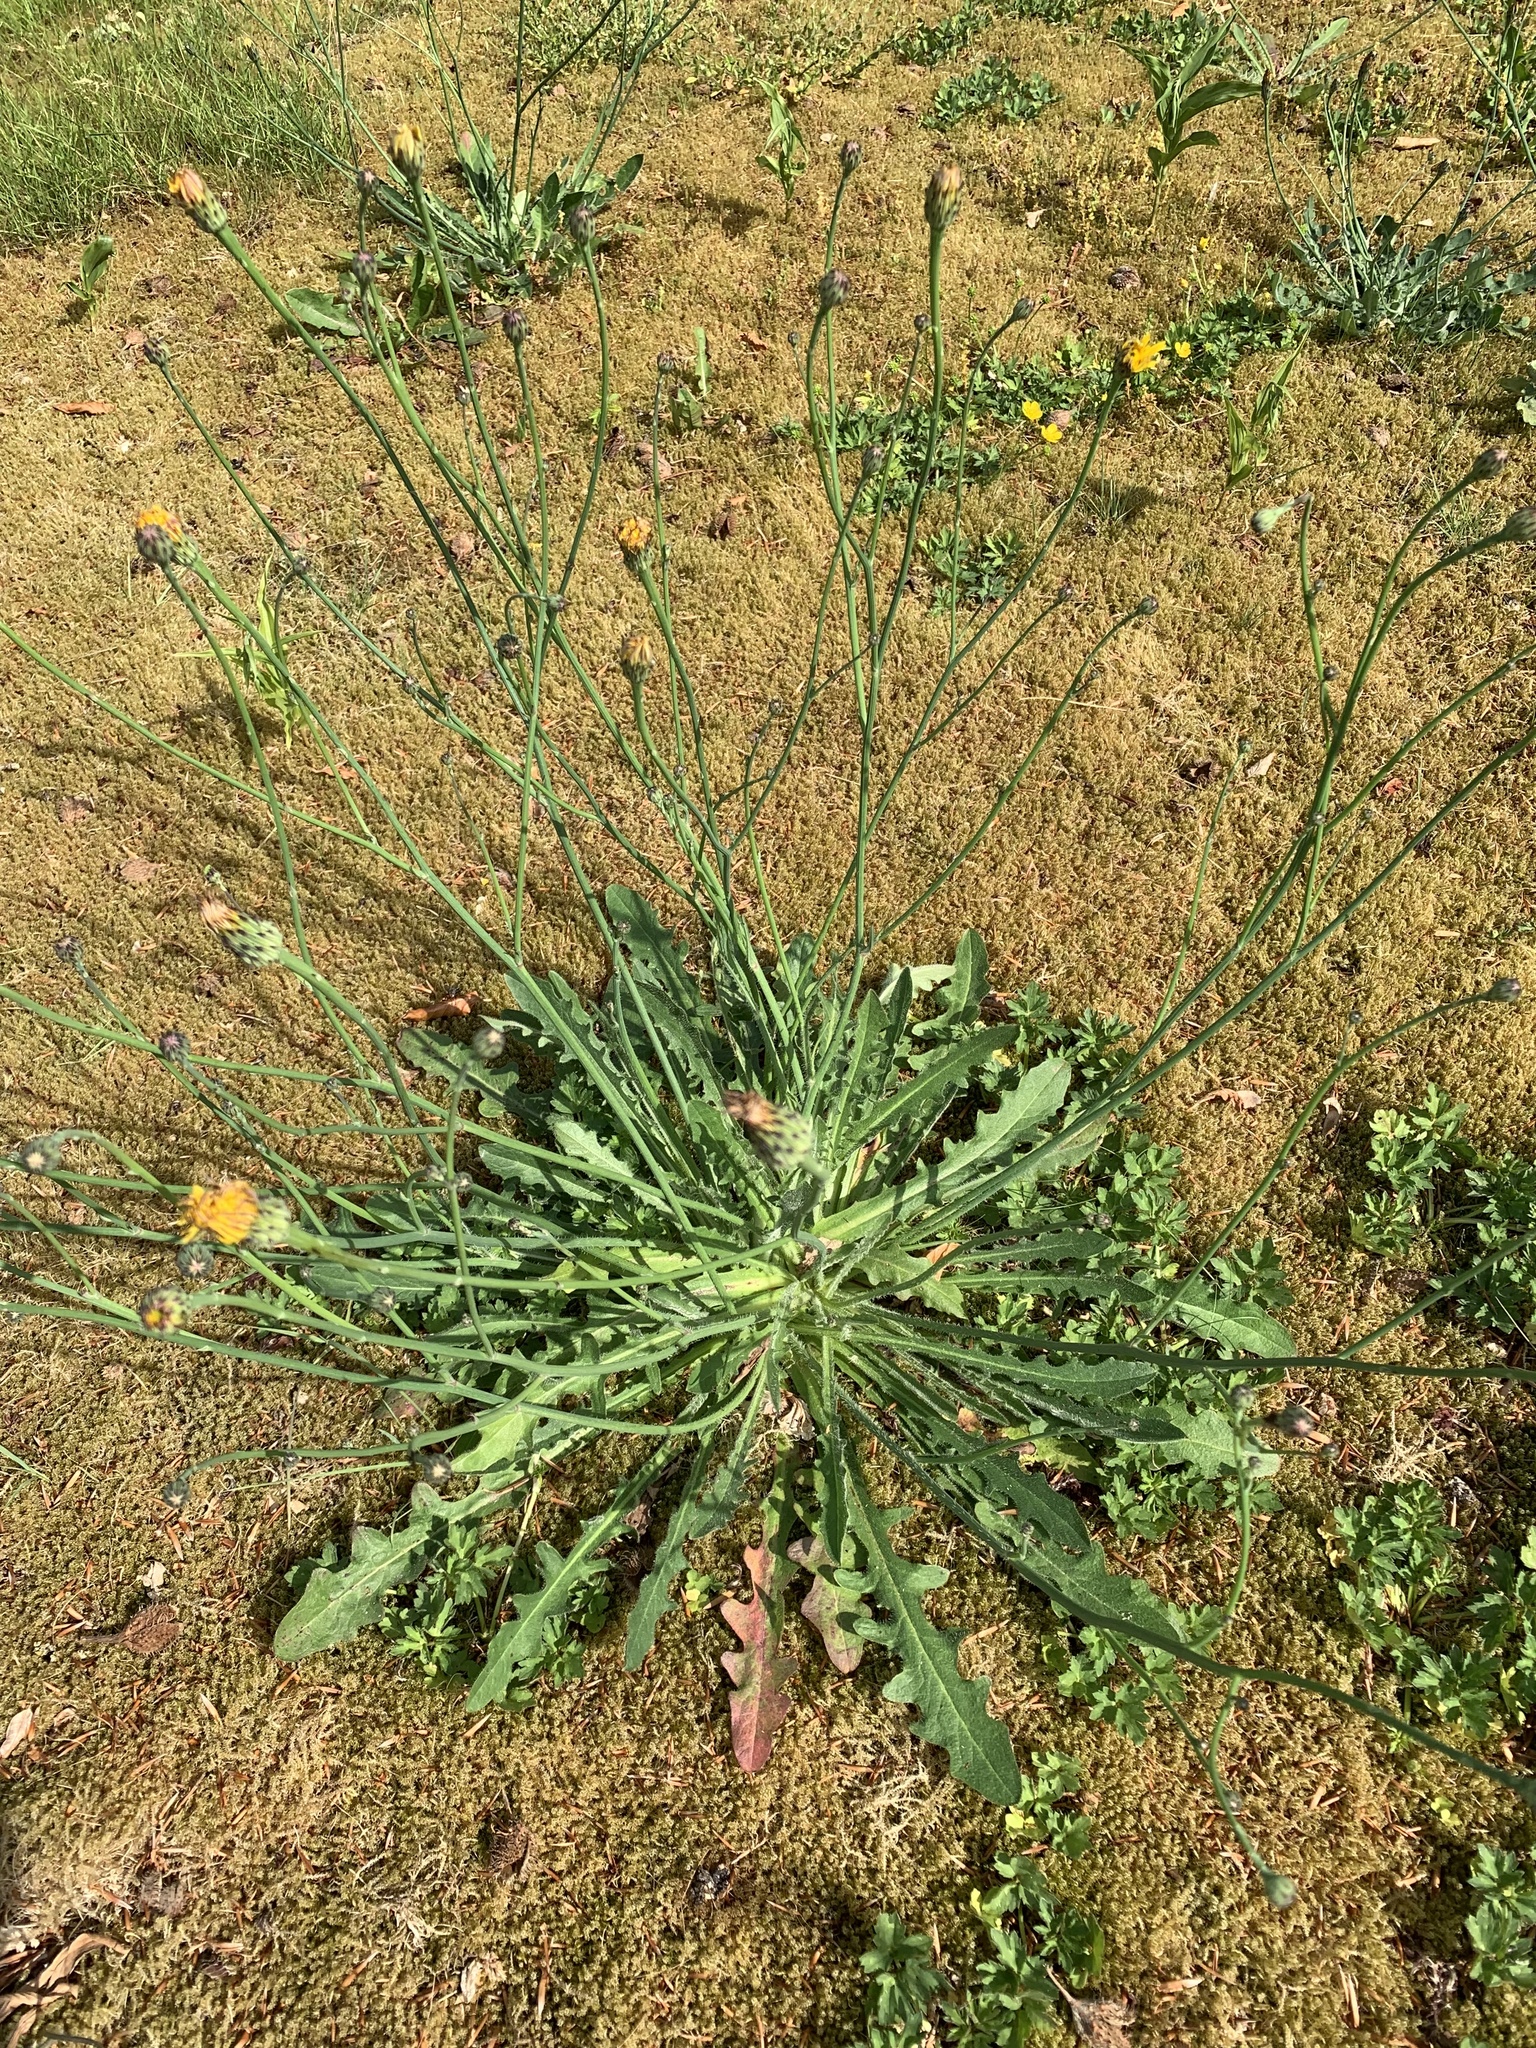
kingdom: Plantae
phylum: Tracheophyta
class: Magnoliopsida
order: Asterales
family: Asteraceae
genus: Hypochaeris
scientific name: Hypochaeris radicata
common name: Flatweed
